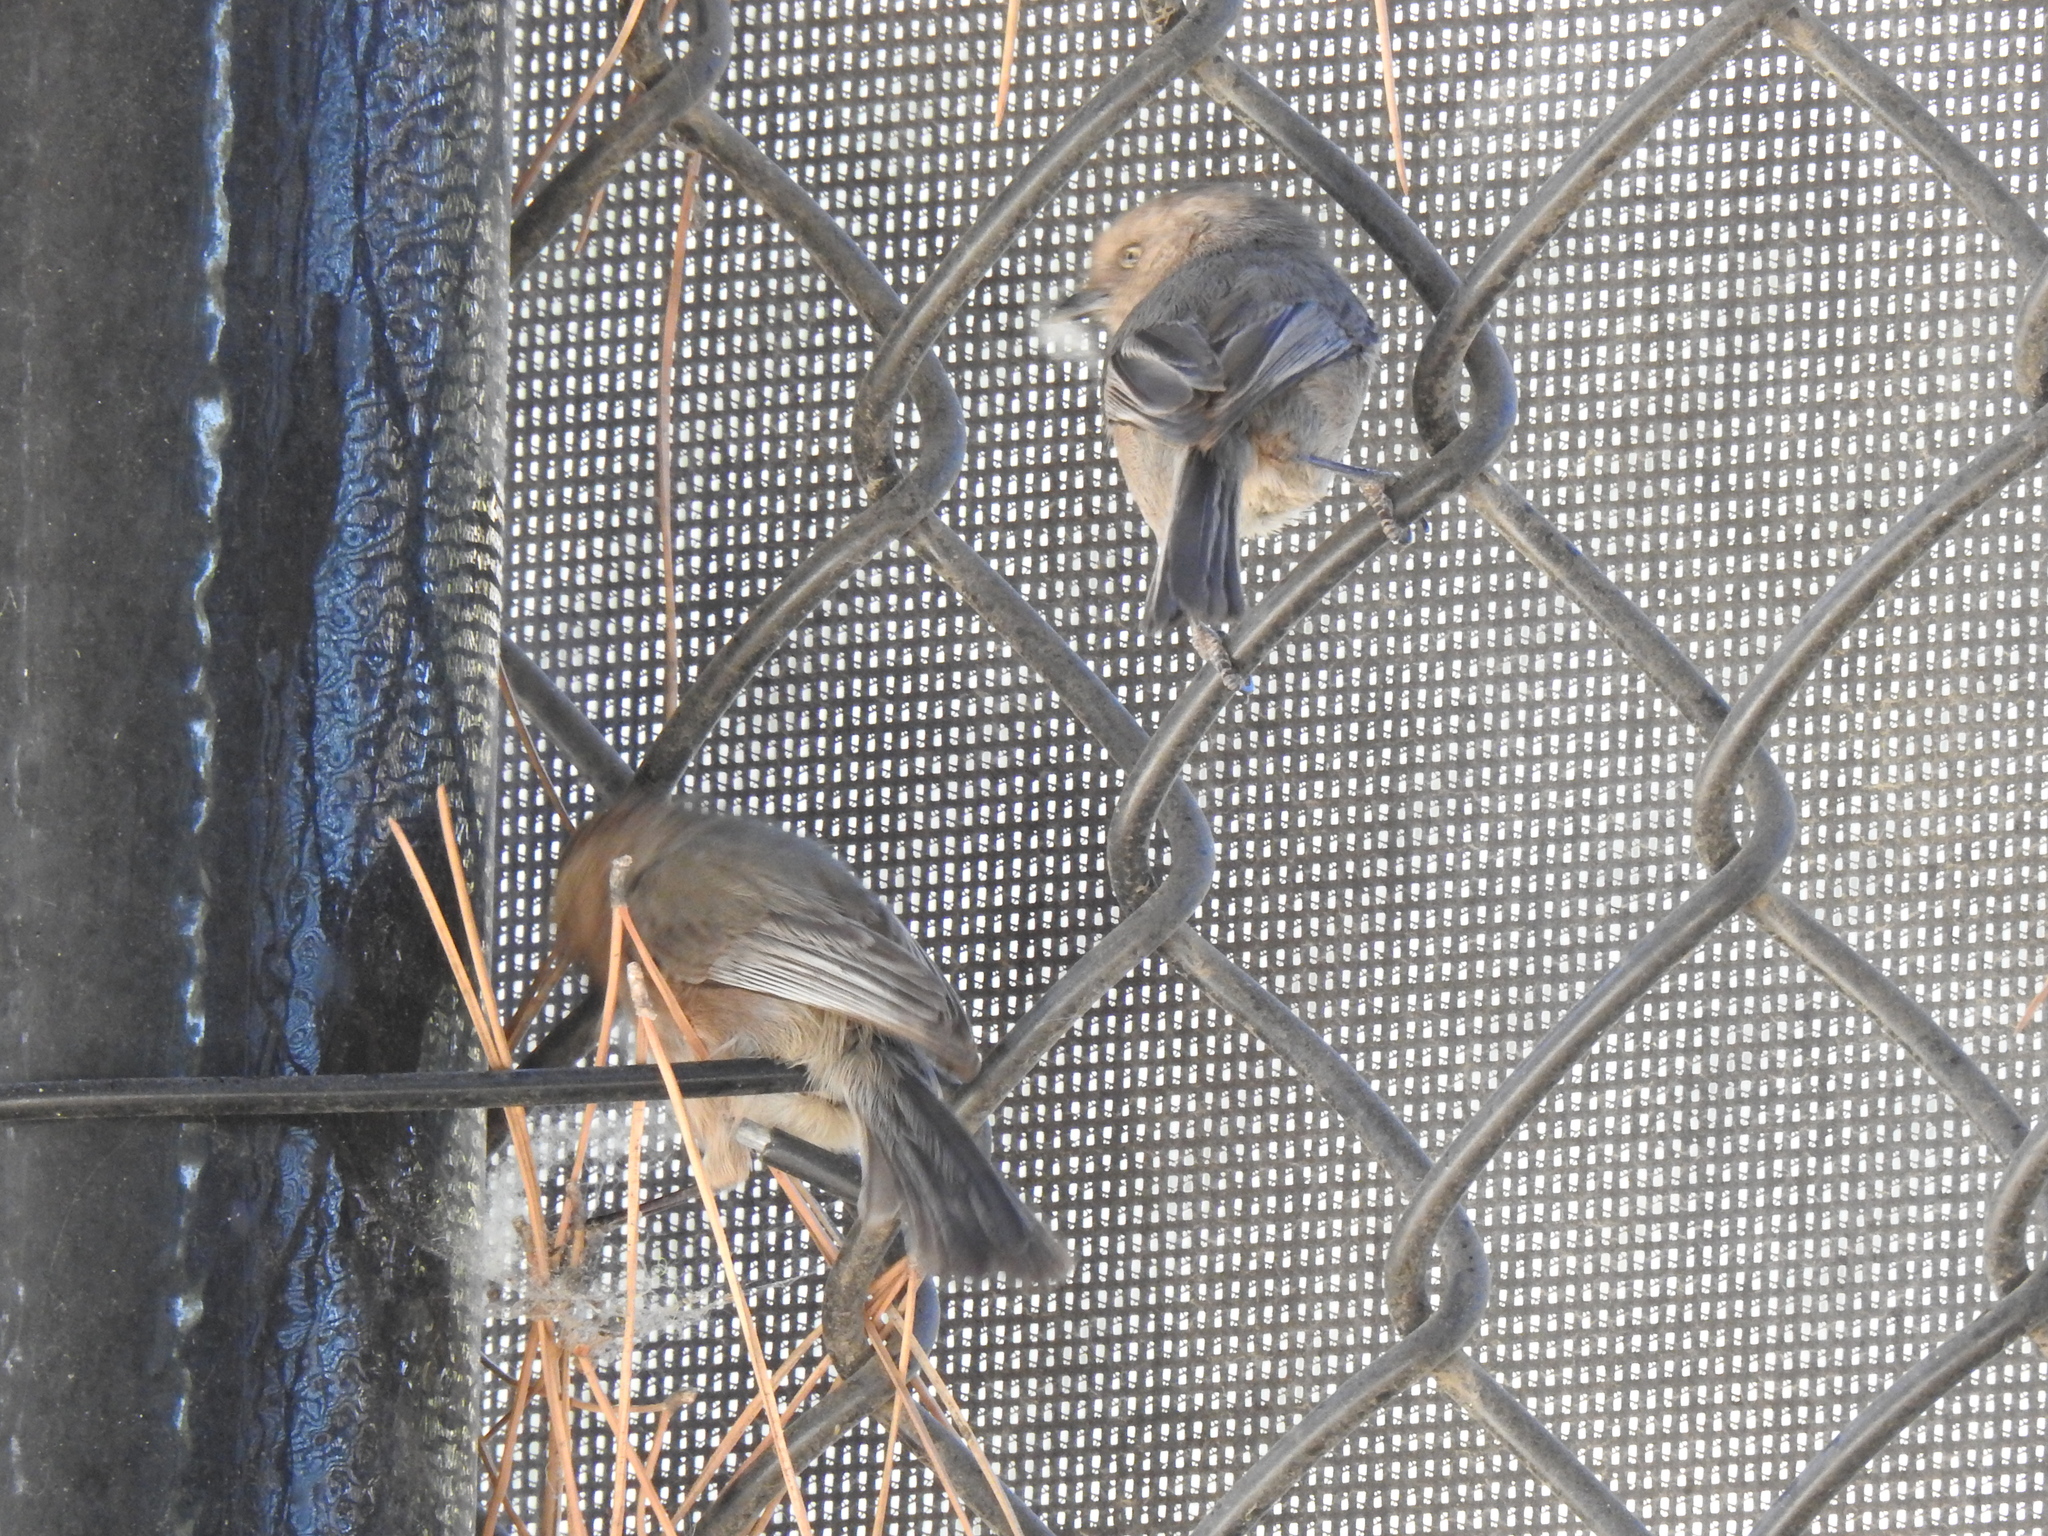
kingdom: Animalia
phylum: Chordata
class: Aves
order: Passeriformes
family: Aegithalidae
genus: Psaltriparus
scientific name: Psaltriparus minimus
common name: American bushtit
